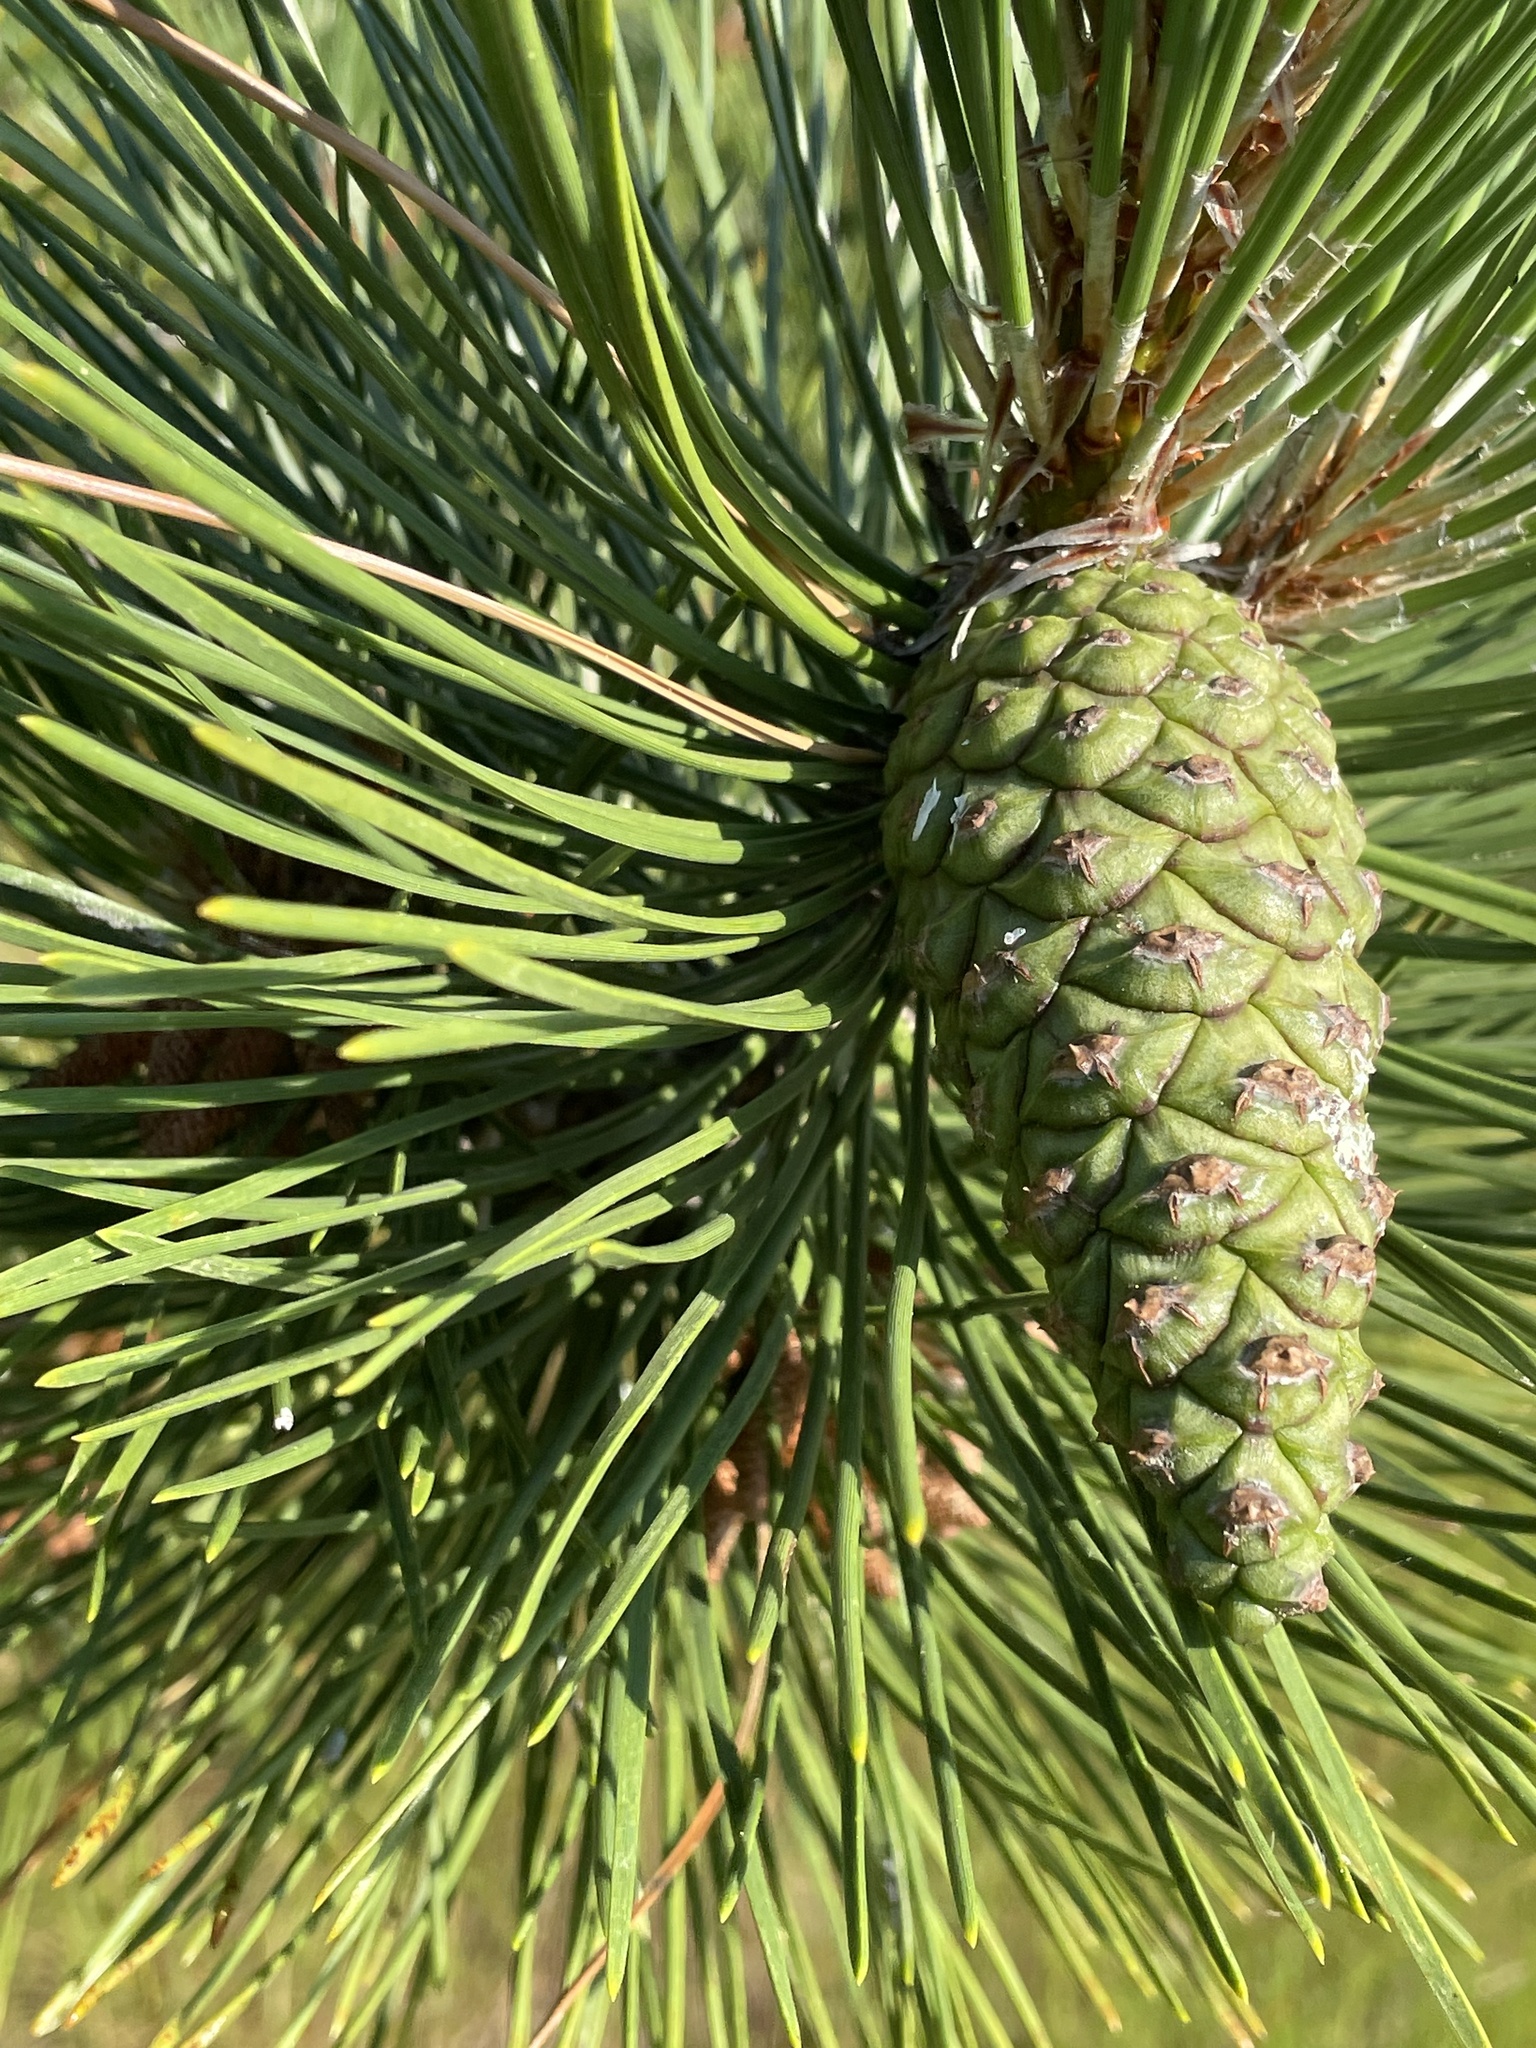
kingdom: Plantae
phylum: Tracheophyta
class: Pinopsida
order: Pinales
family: Pinaceae
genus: Pinus
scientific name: Pinus resinosa
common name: Norway pine
